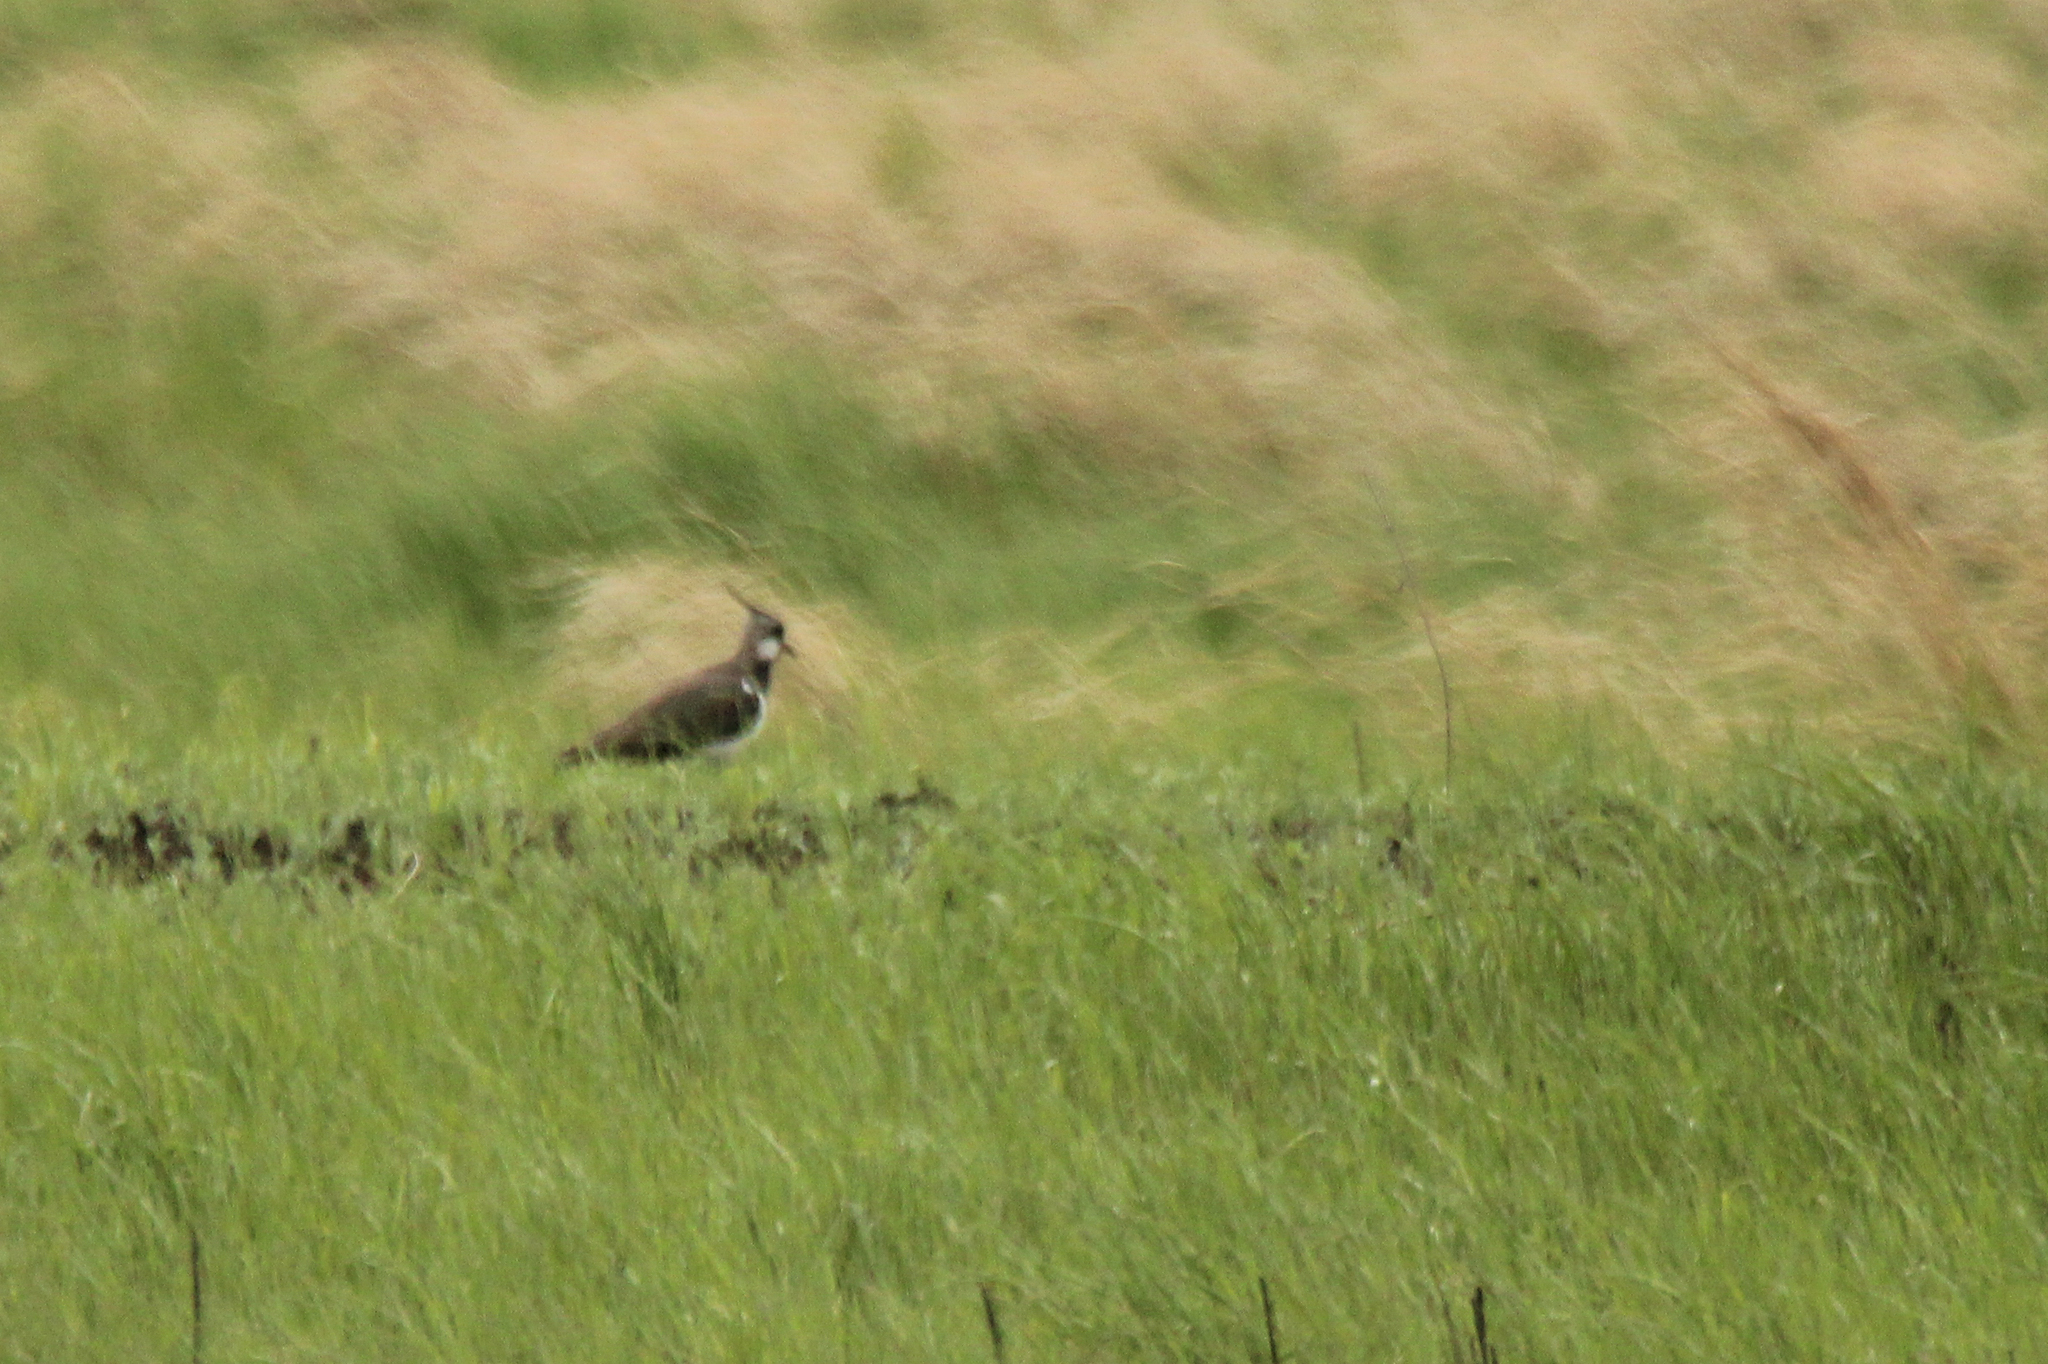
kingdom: Animalia
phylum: Chordata
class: Aves
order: Charadriiformes
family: Charadriidae
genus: Vanellus
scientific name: Vanellus vanellus
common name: Northern lapwing
